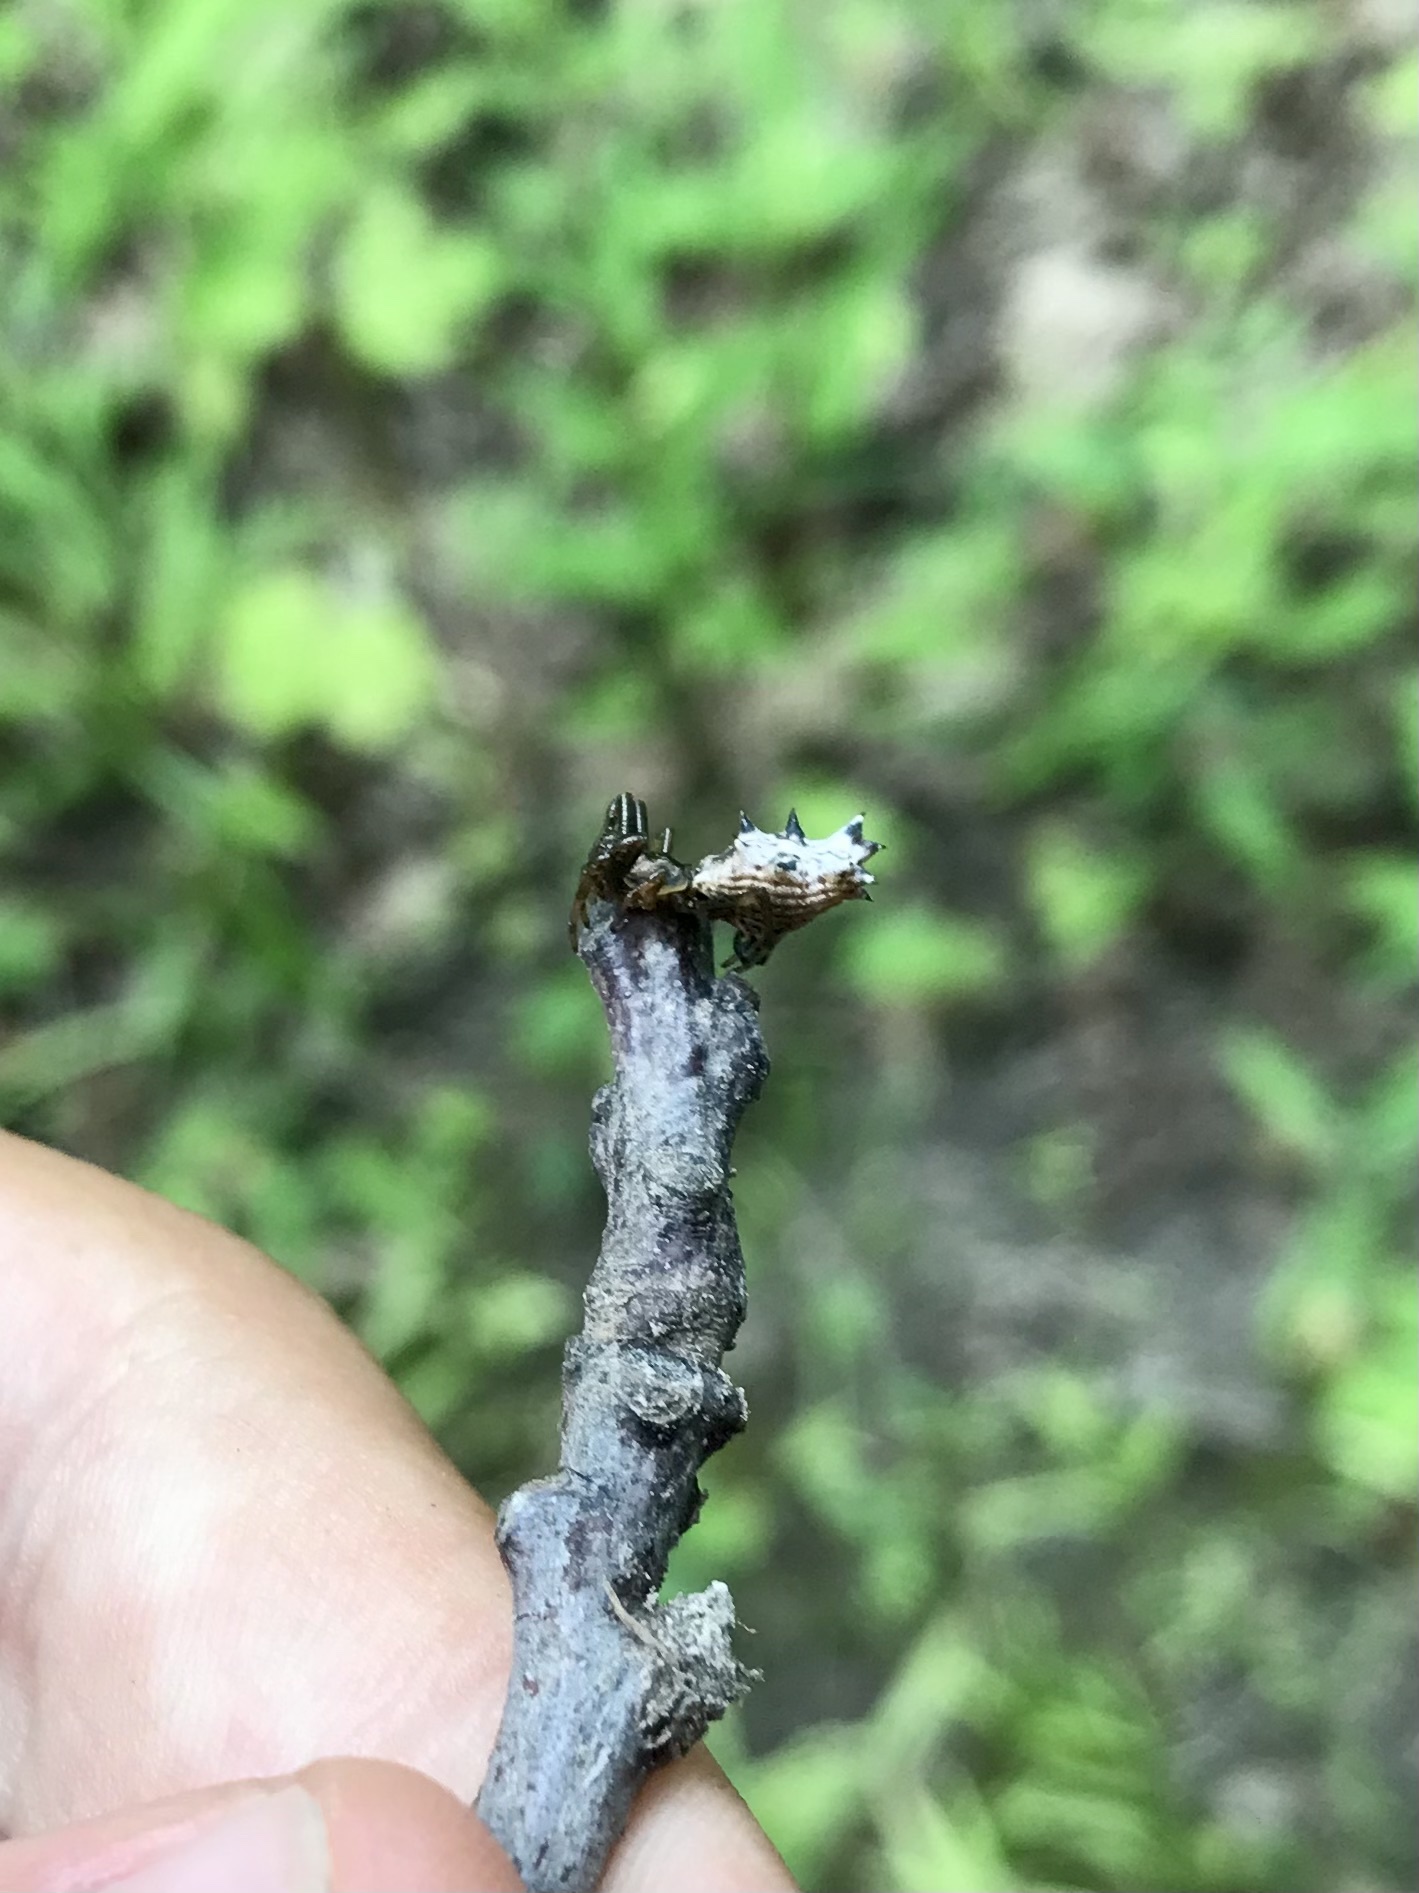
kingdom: Animalia
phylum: Arthropoda
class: Arachnida
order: Araneae
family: Araneidae
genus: Micrathena
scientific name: Micrathena gracilis
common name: Orb weavers
